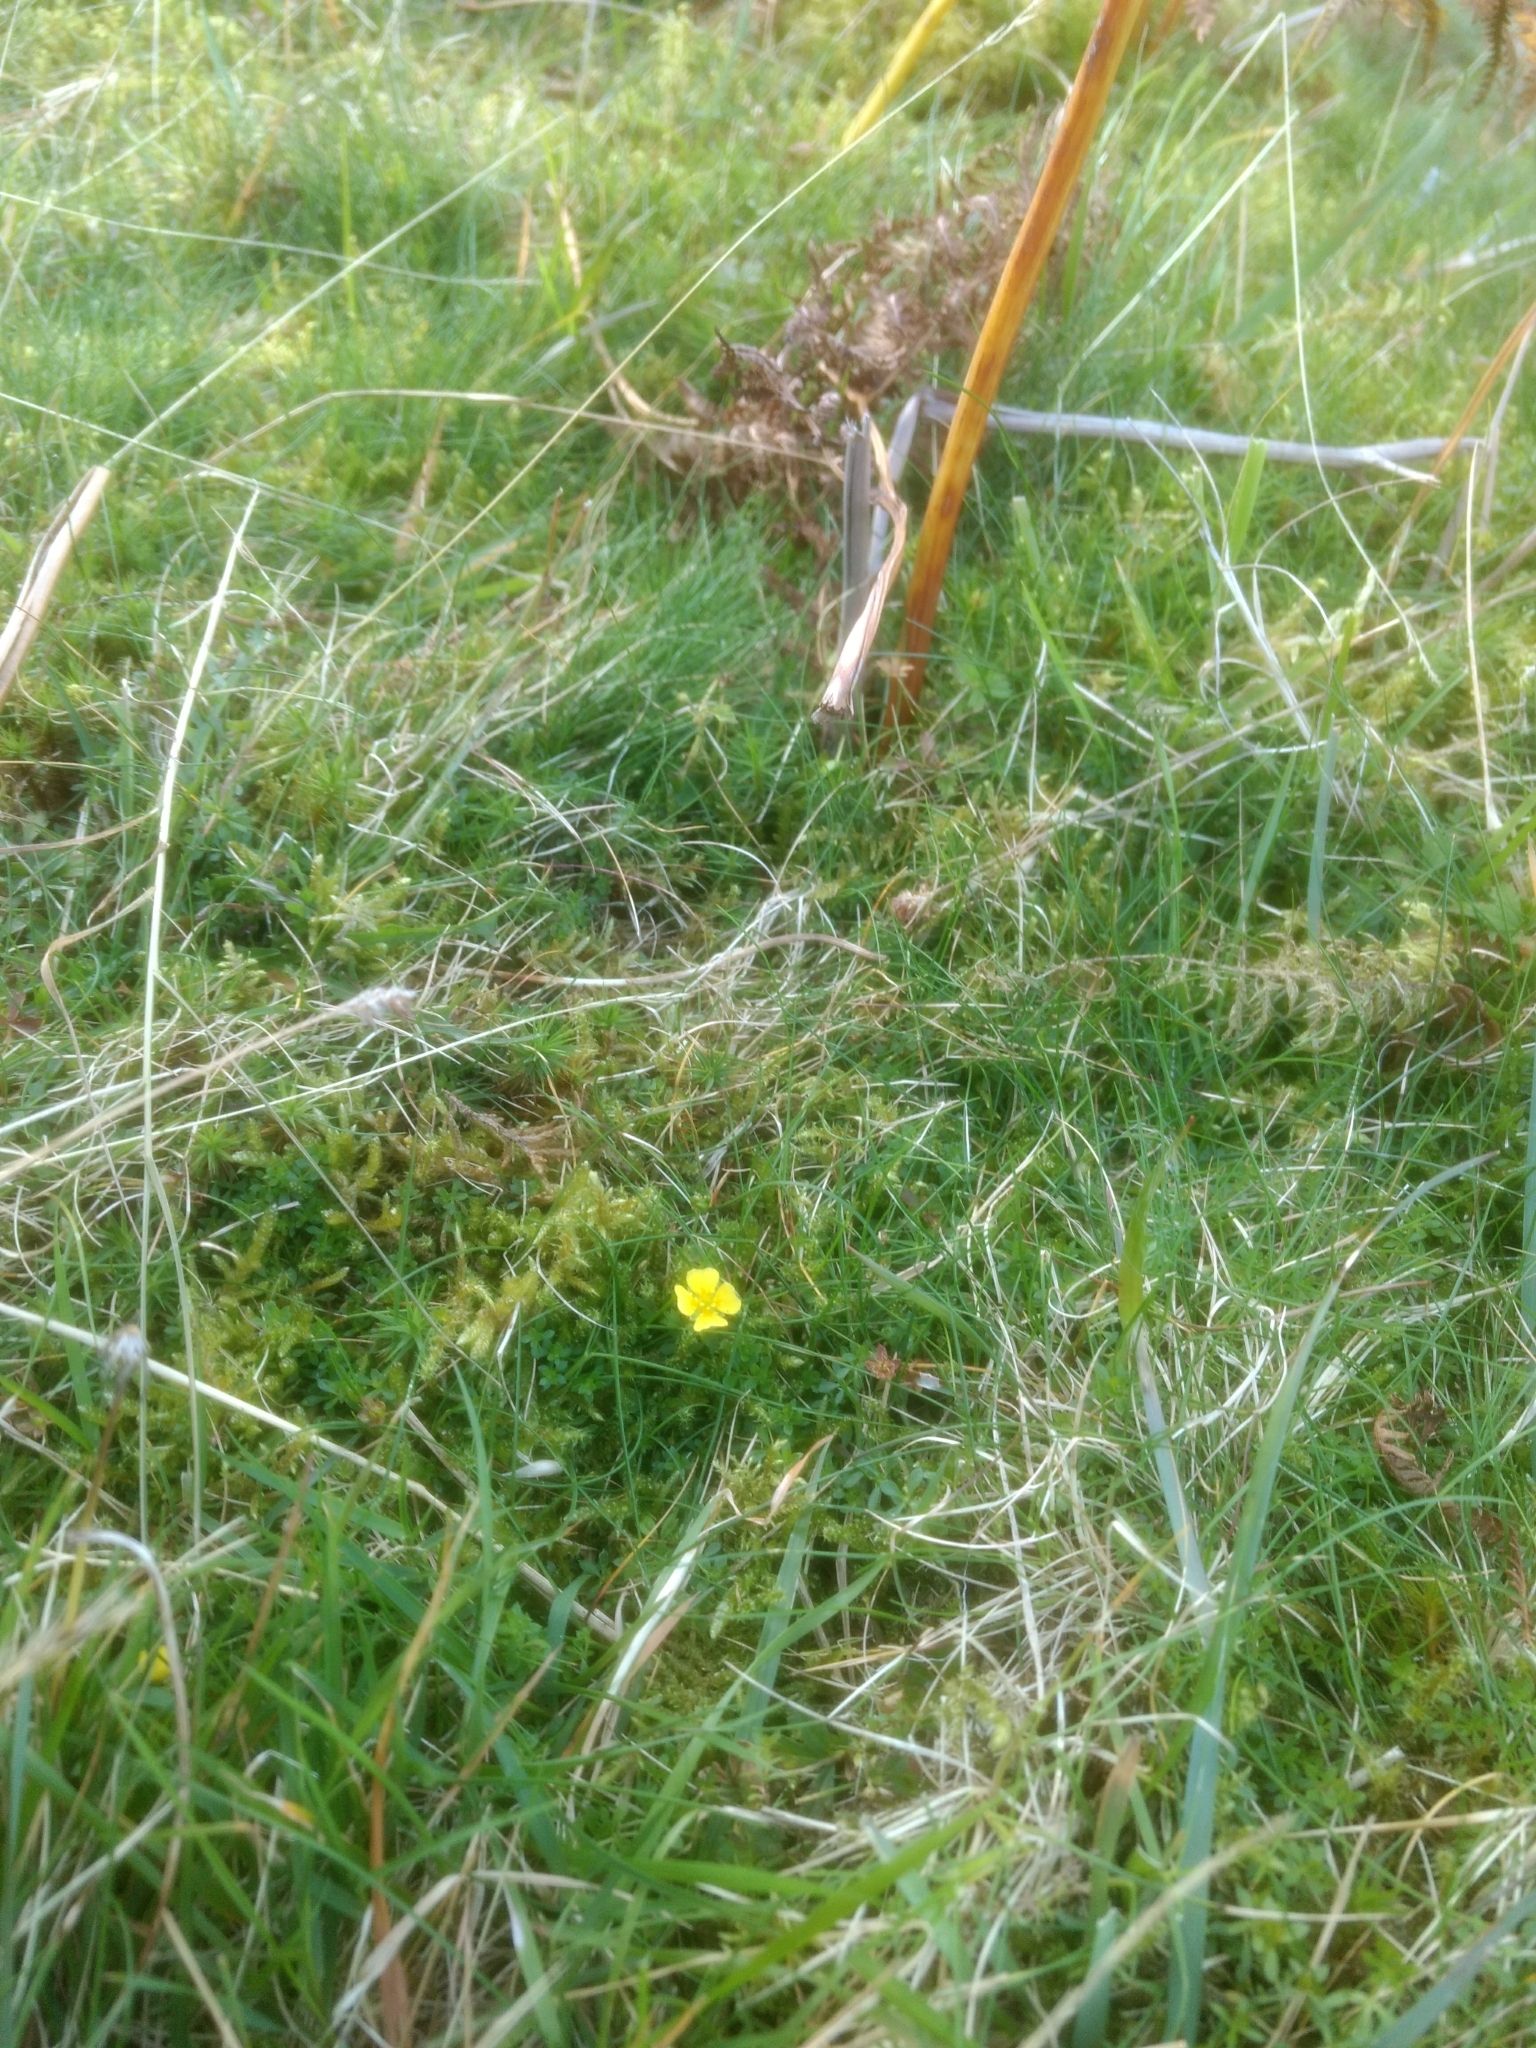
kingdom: Plantae
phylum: Tracheophyta
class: Magnoliopsida
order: Rosales
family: Rosaceae
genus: Potentilla
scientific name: Potentilla erecta
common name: Tormentil
